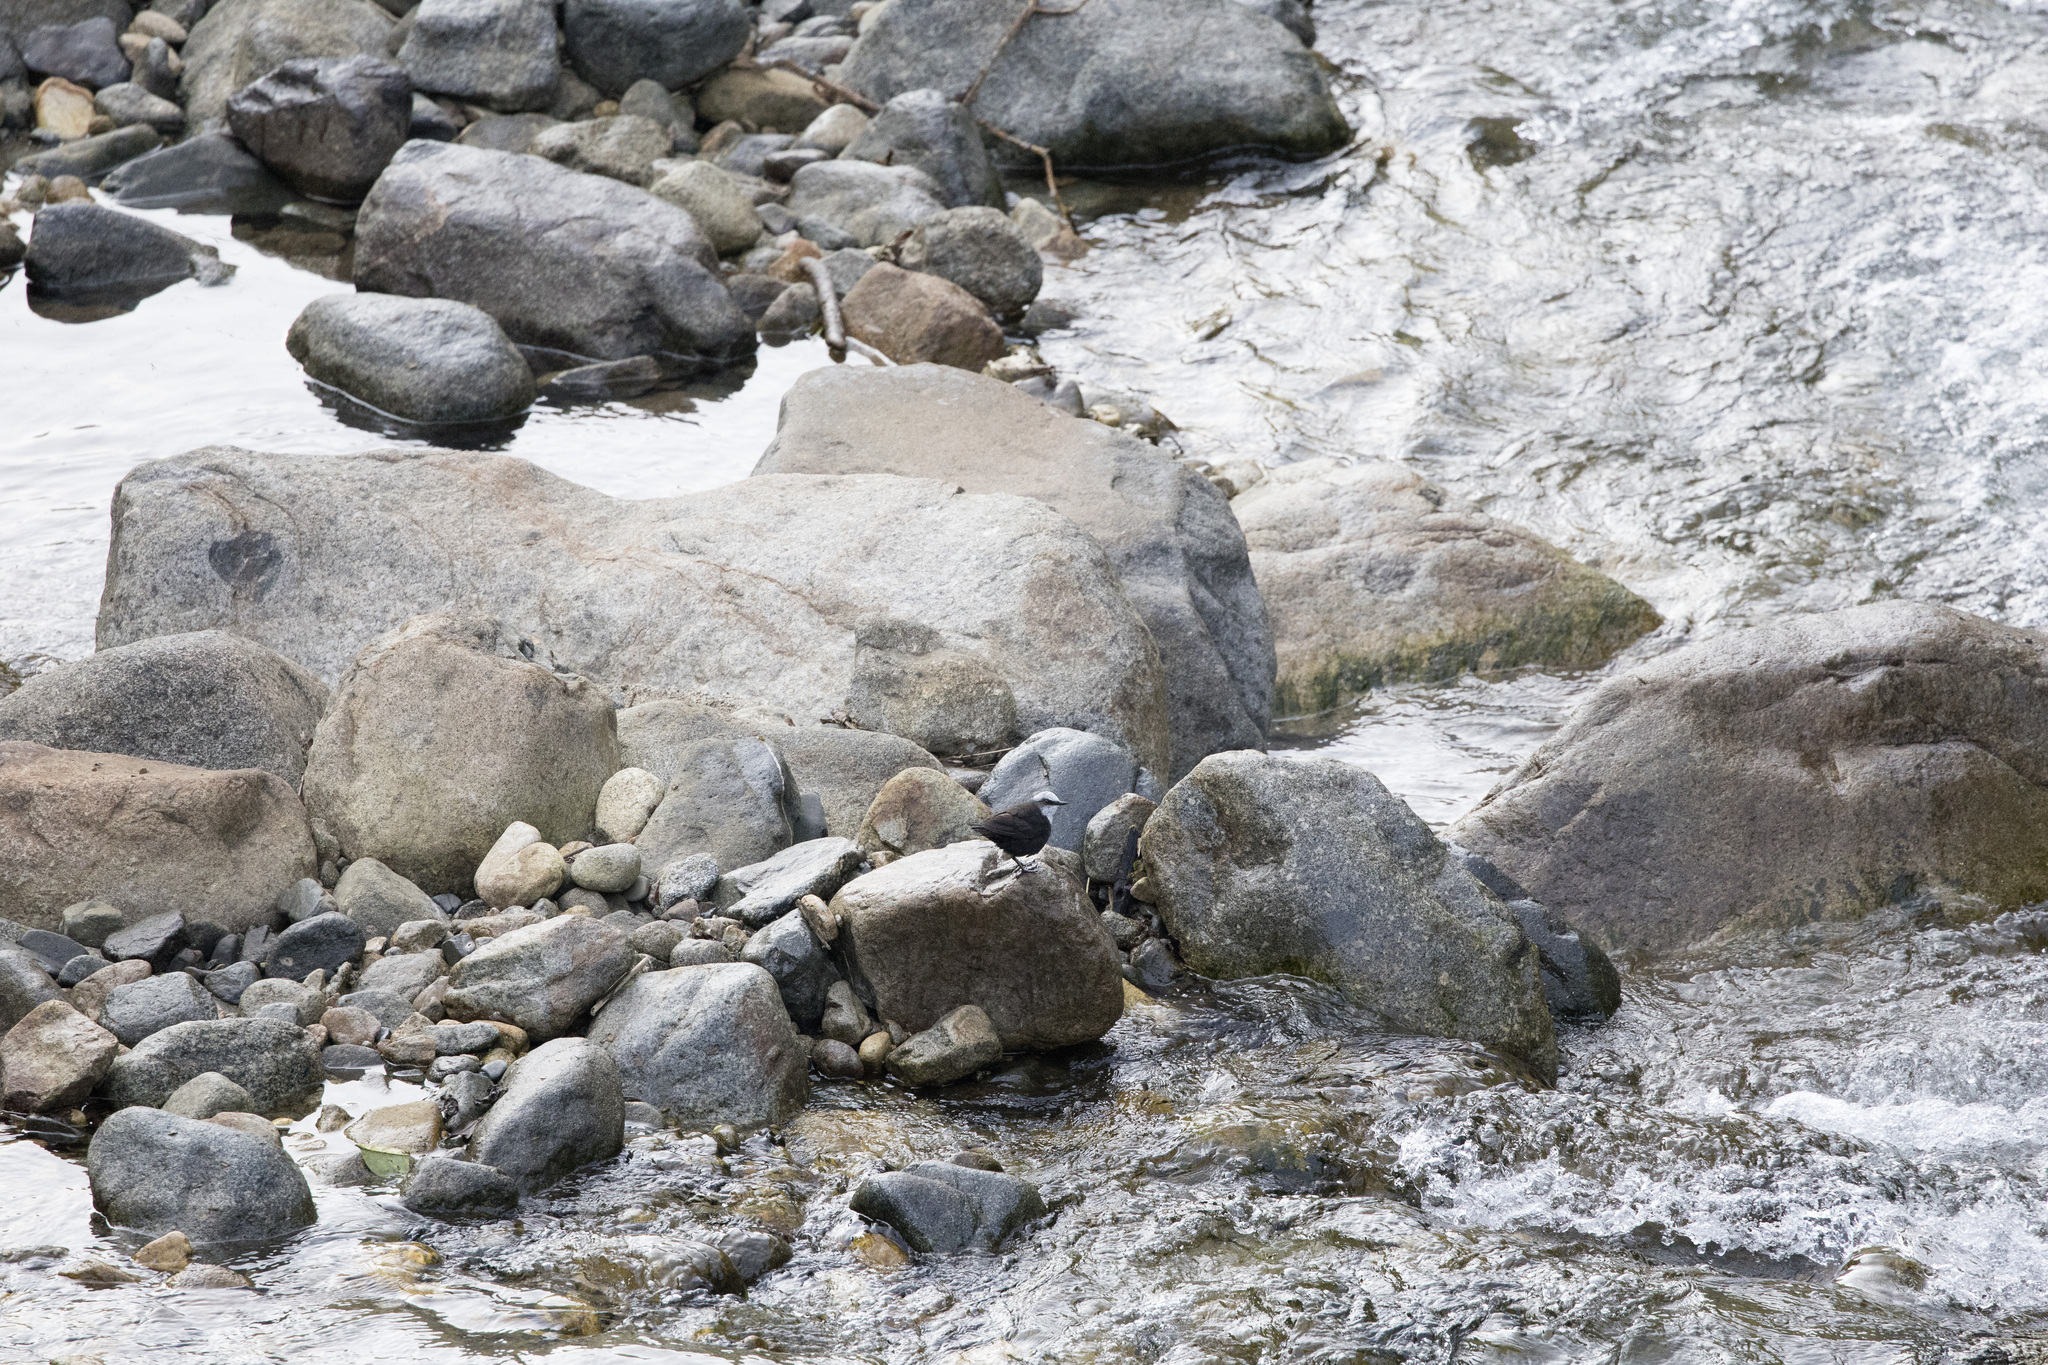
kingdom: Animalia
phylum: Chordata
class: Aves
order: Passeriformes
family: Cinclidae
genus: Cinclus
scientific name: Cinclus leucocephalus
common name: White-capped dipper
